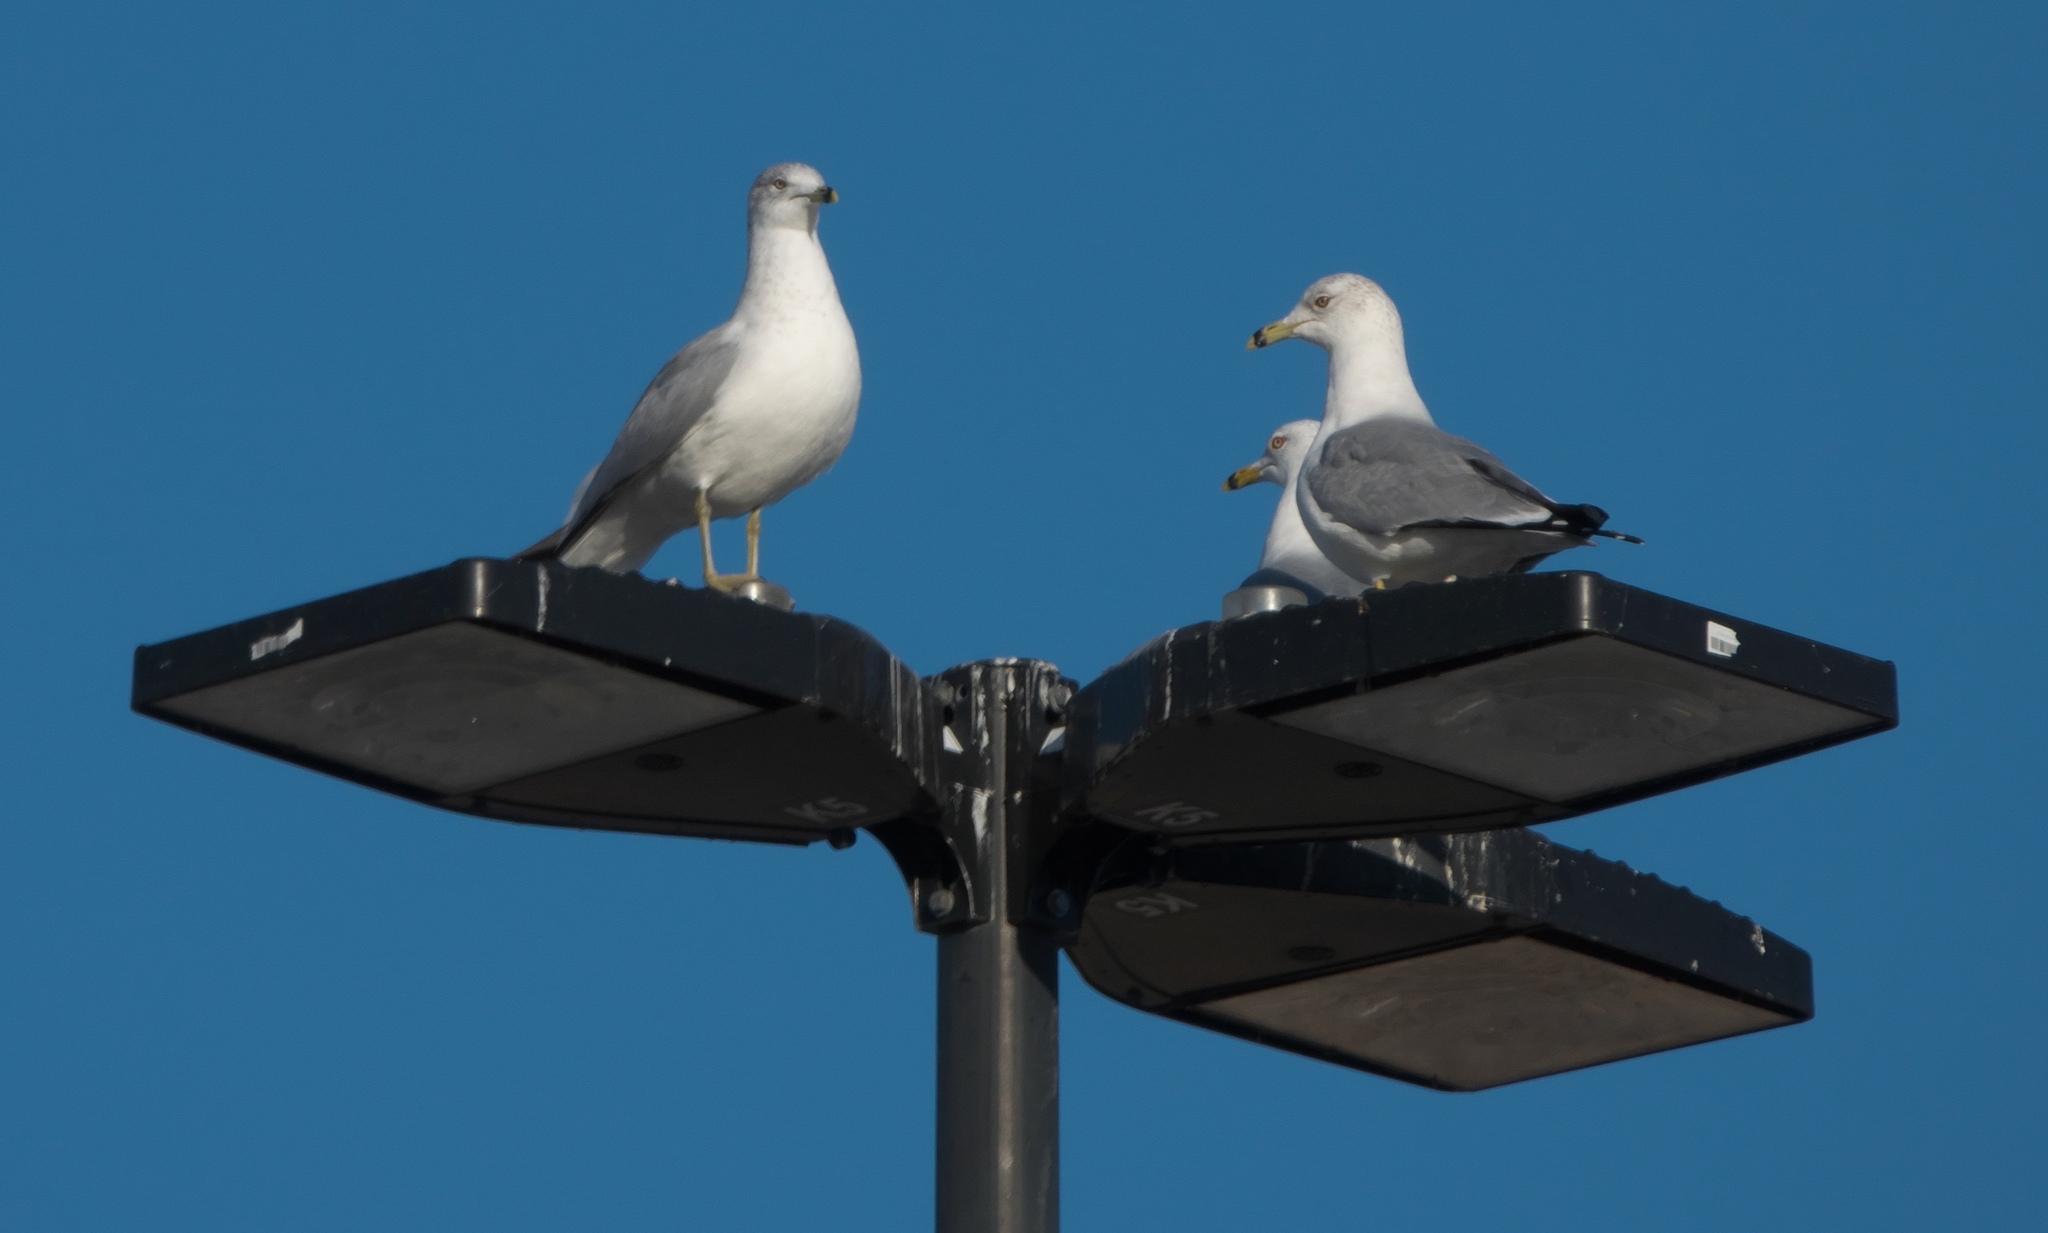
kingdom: Animalia
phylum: Chordata
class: Aves
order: Charadriiformes
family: Laridae
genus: Larus
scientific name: Larus delawarensis
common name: Ring-billed gull
